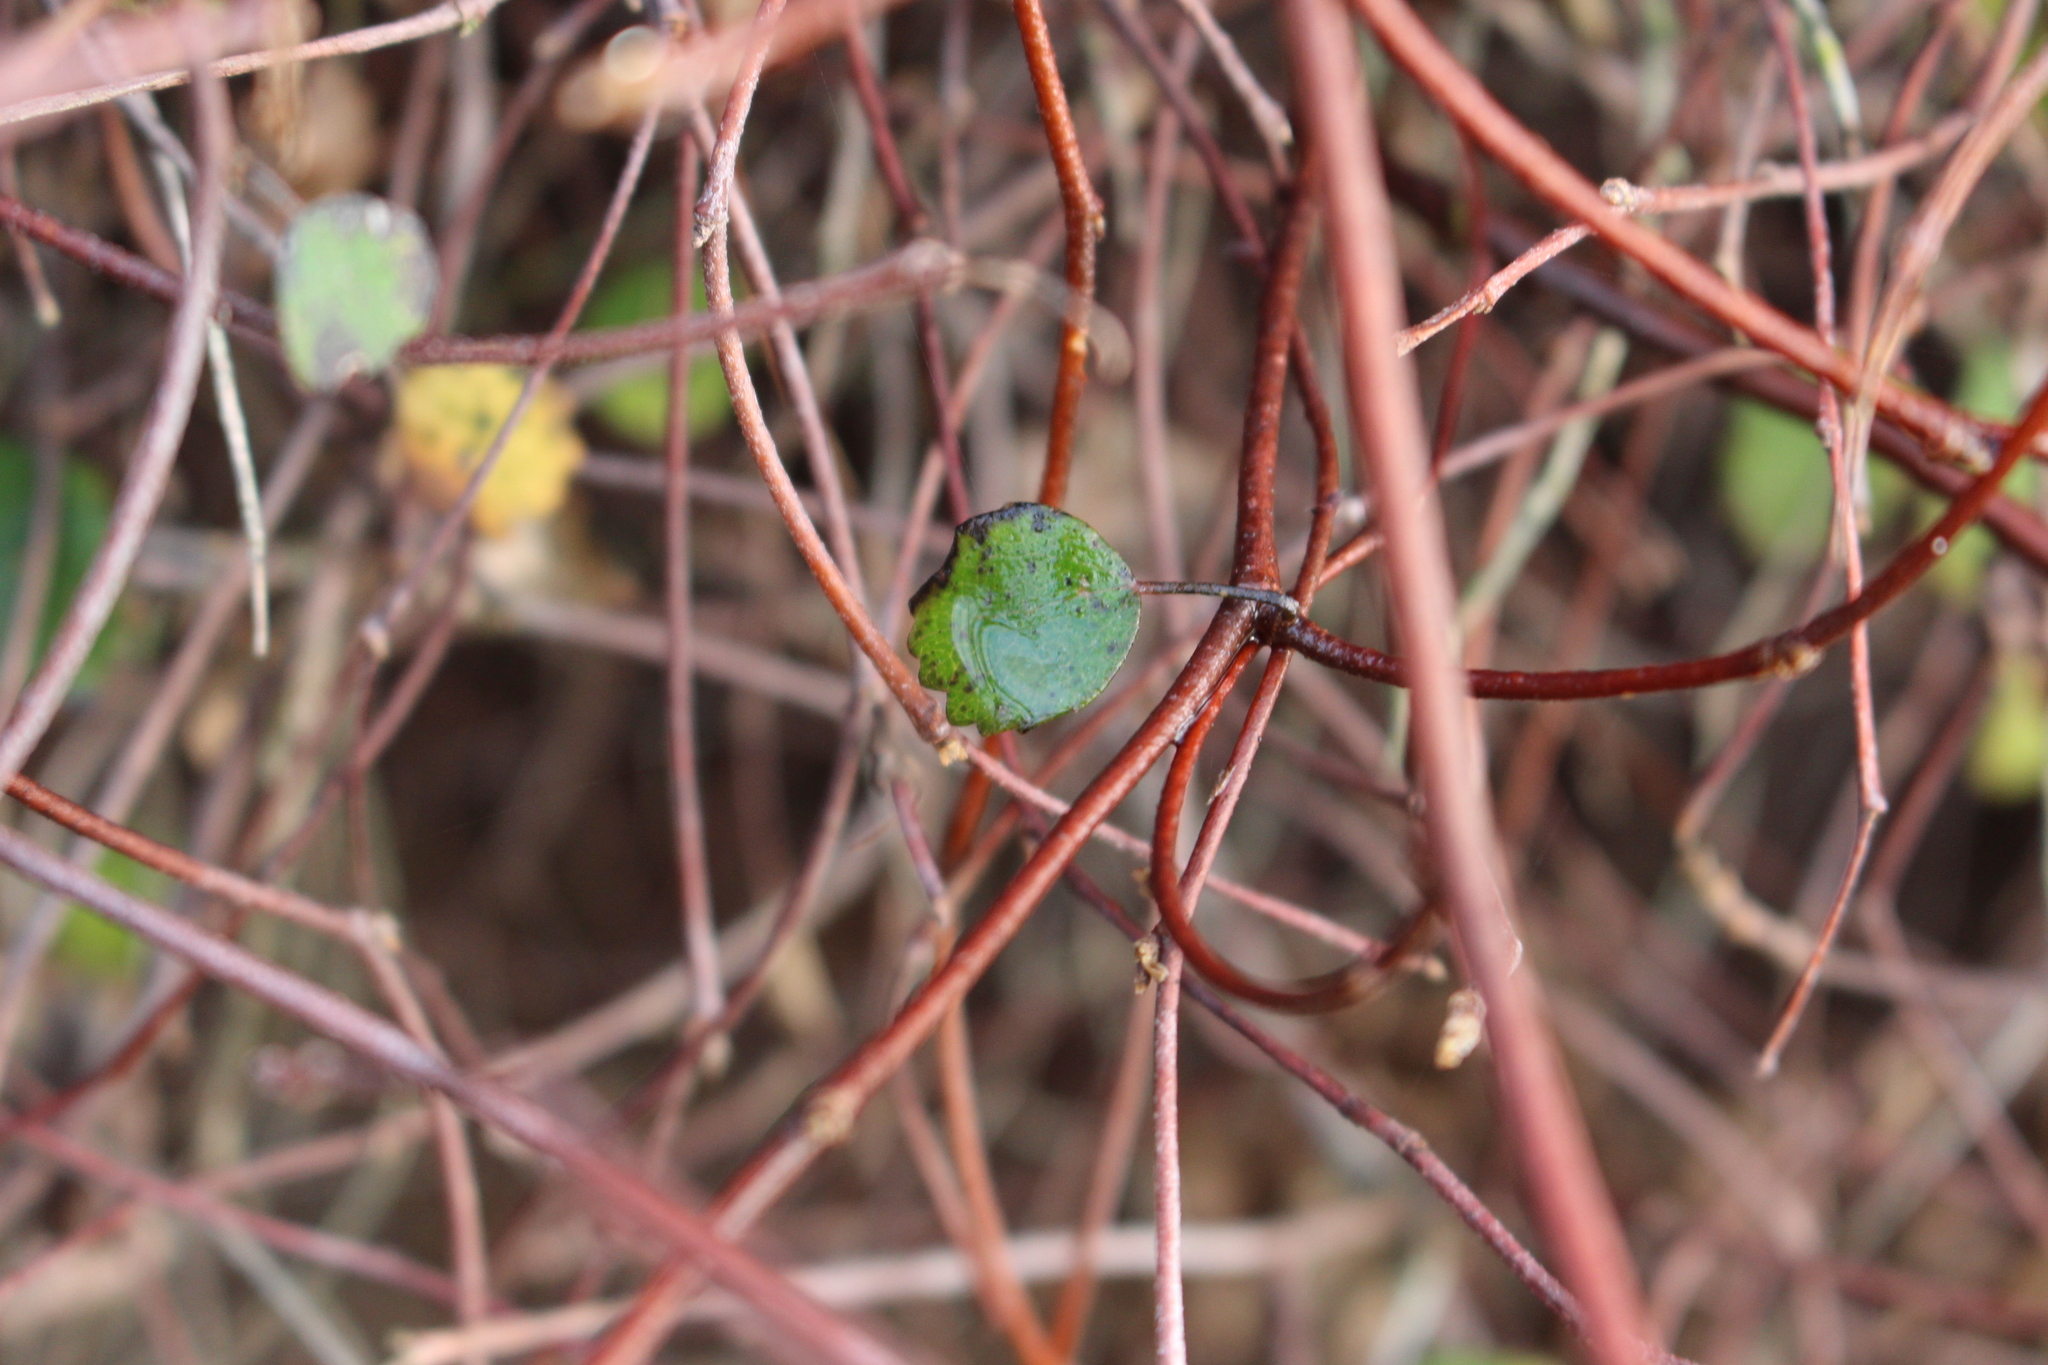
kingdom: Plantae
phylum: Tracheophyta
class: Magnoliopsida
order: Caryophyllales
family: Polygonaceae
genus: Muehlenbeckia
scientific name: Muehlenbeckia complexa
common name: Wireplant
